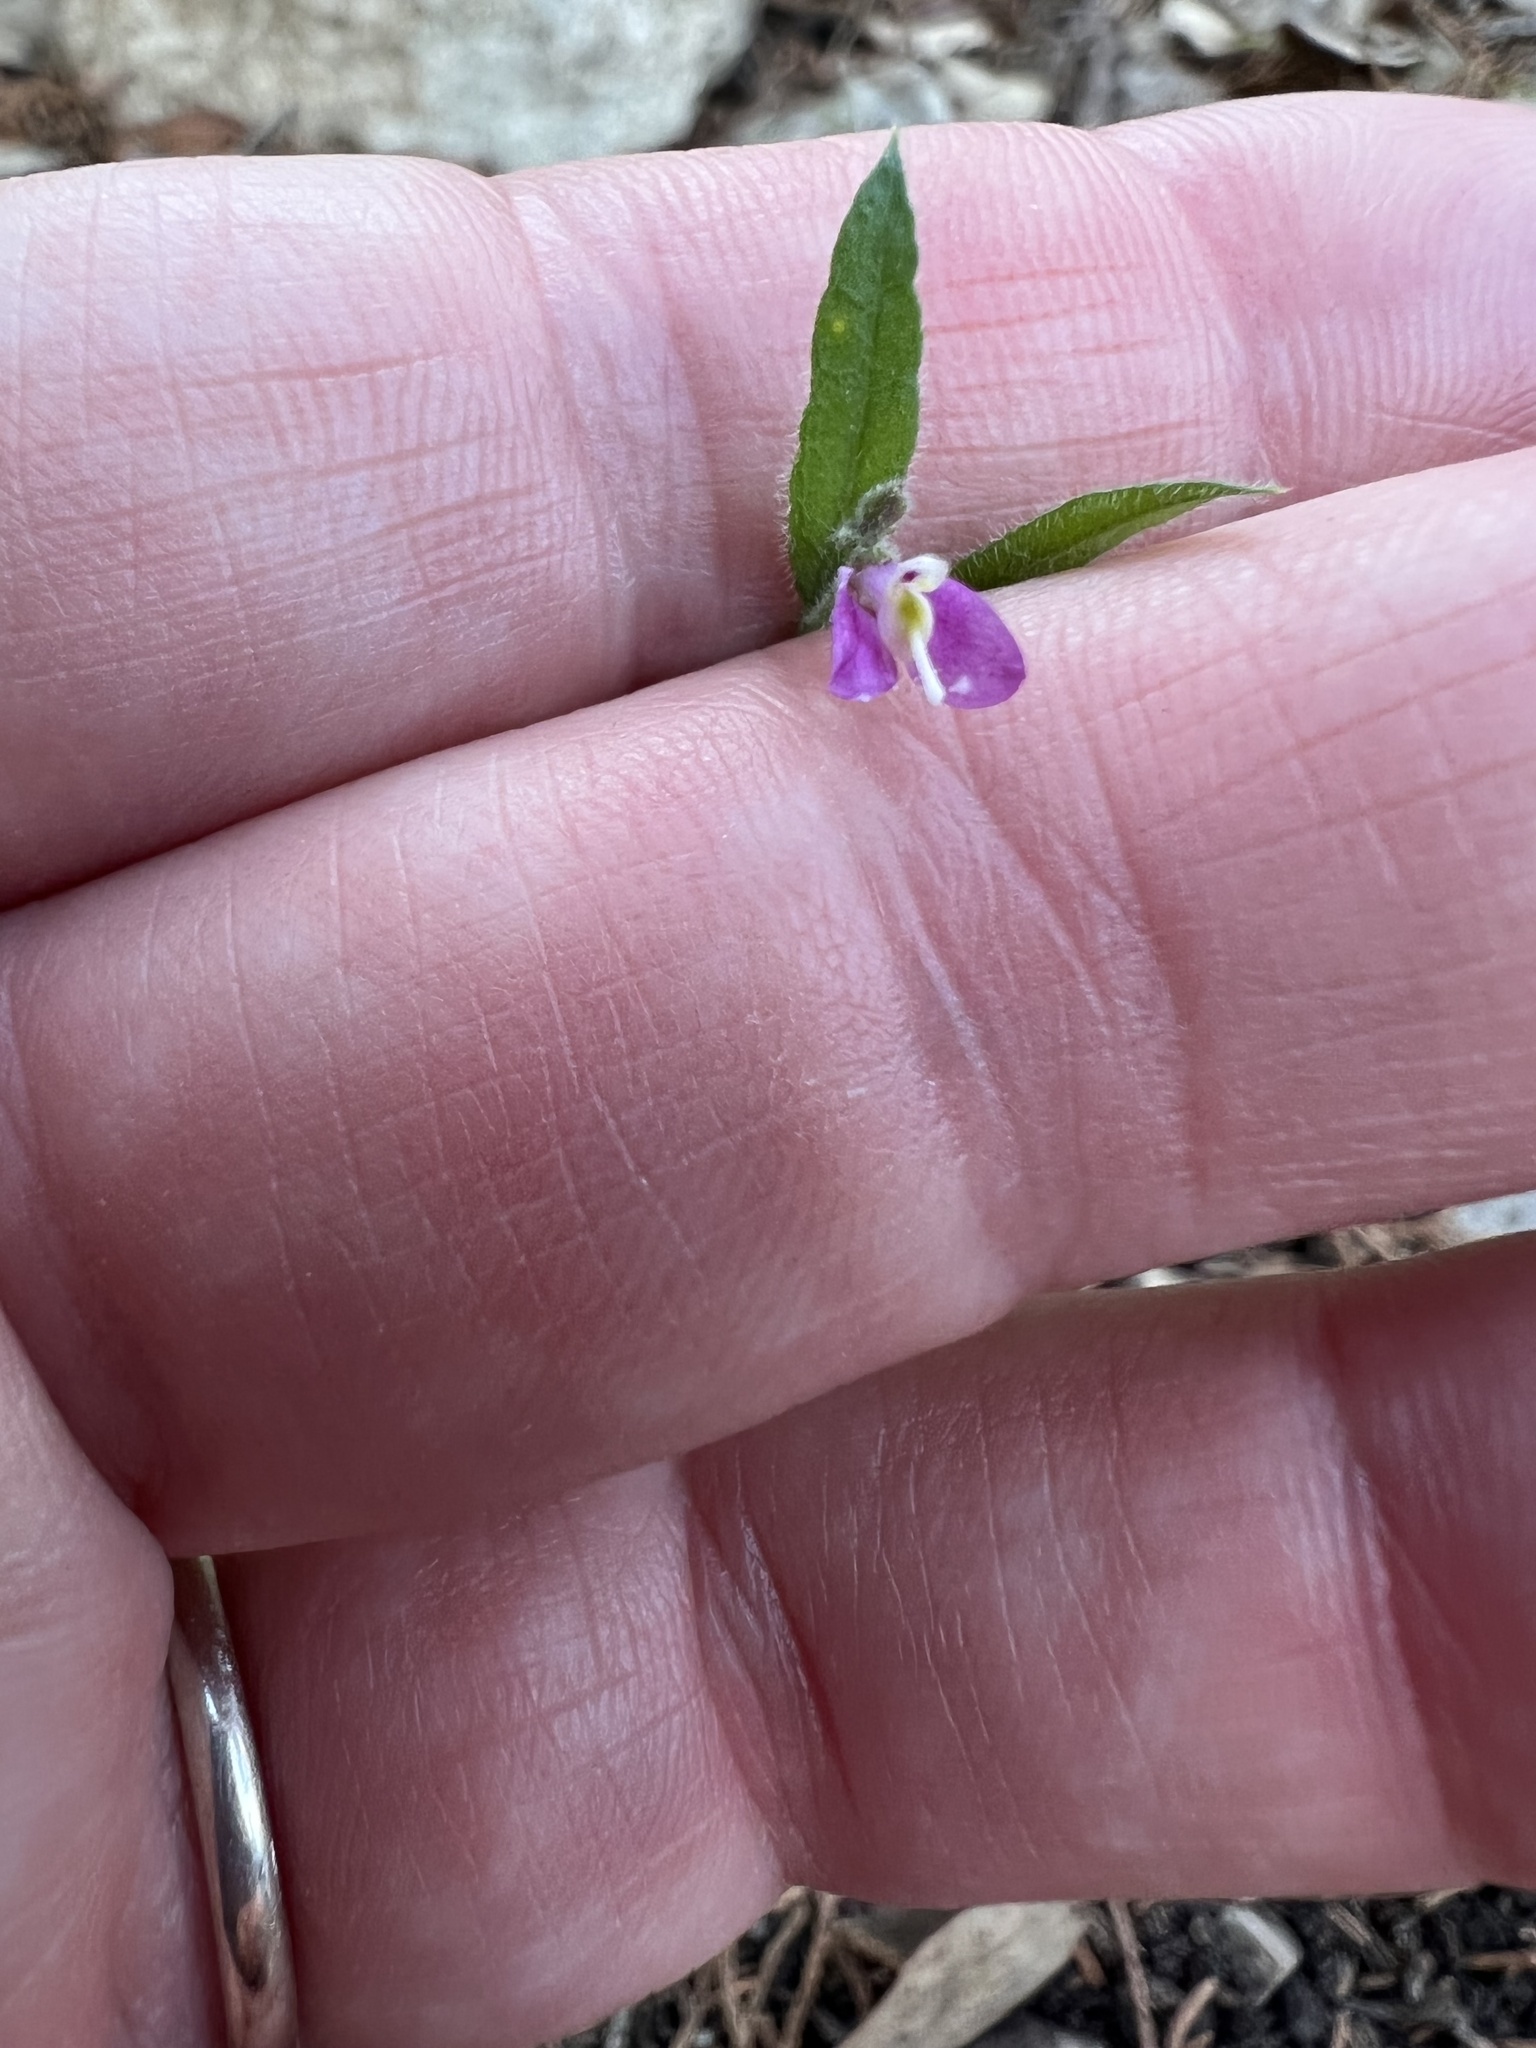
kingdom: Plantae
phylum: Tracheophyta
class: Magnoliopsida
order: Fabales
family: Polygalaceae
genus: Rhinotropis
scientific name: Rhinotropis lindheimeri
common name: Shrubby milkwort
